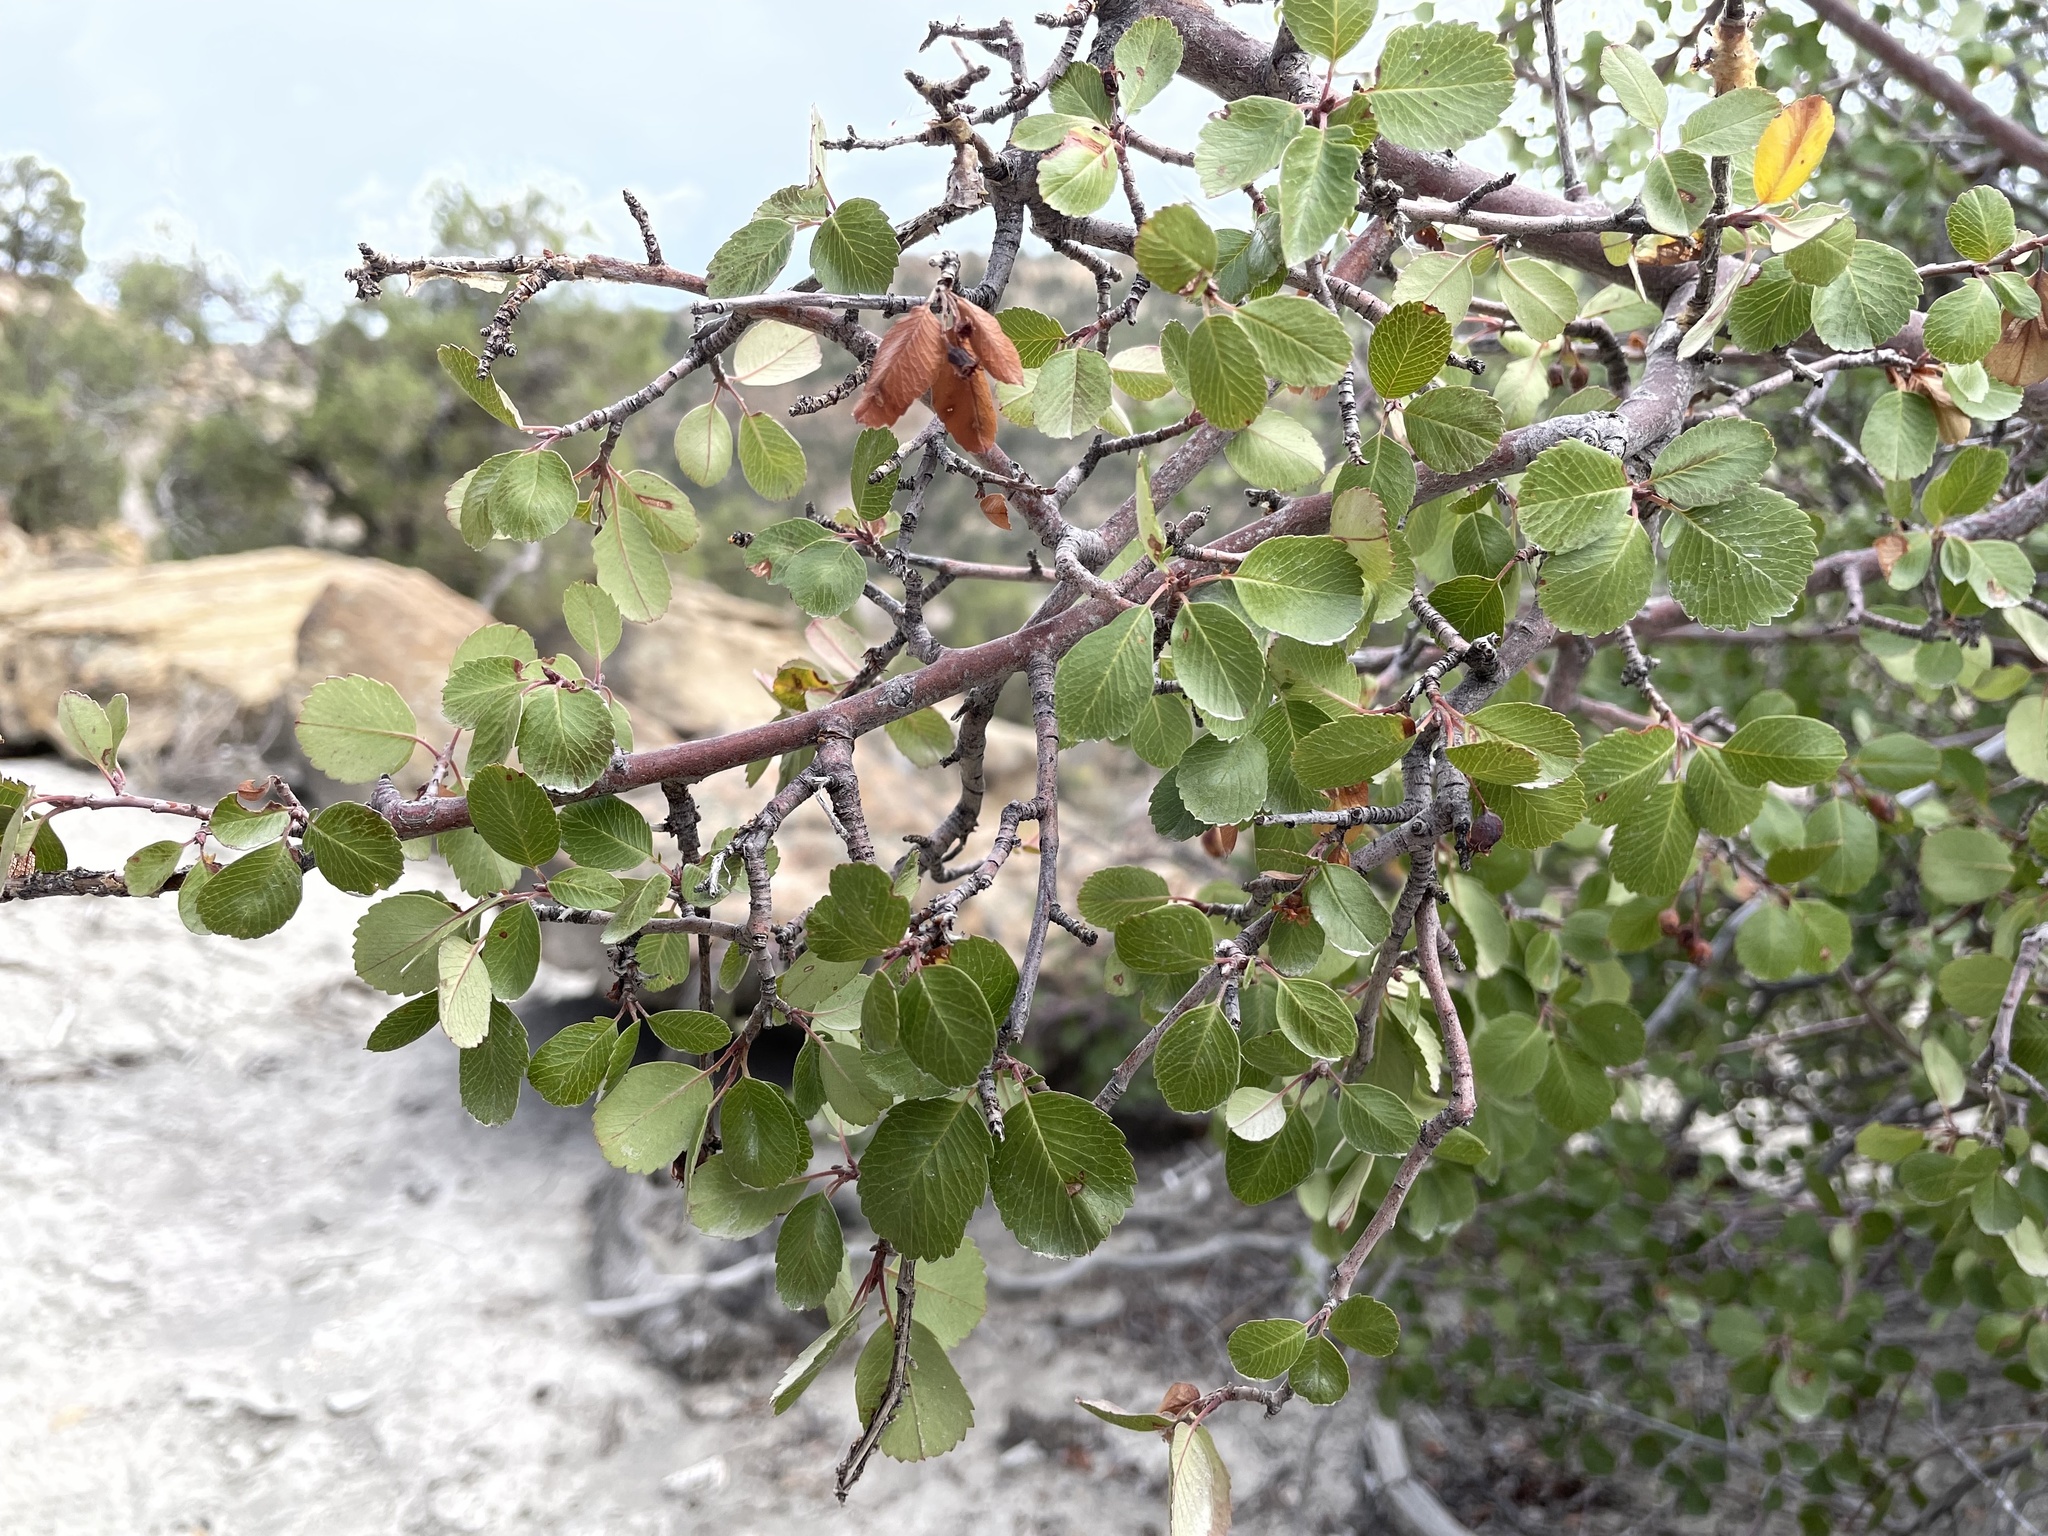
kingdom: Plantae
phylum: Tracheophyta
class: Magnoliopsida
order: Rosales
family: Rosaceae
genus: Amelanchier
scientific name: Amelanchier utahensis
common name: Utah serviceberry
